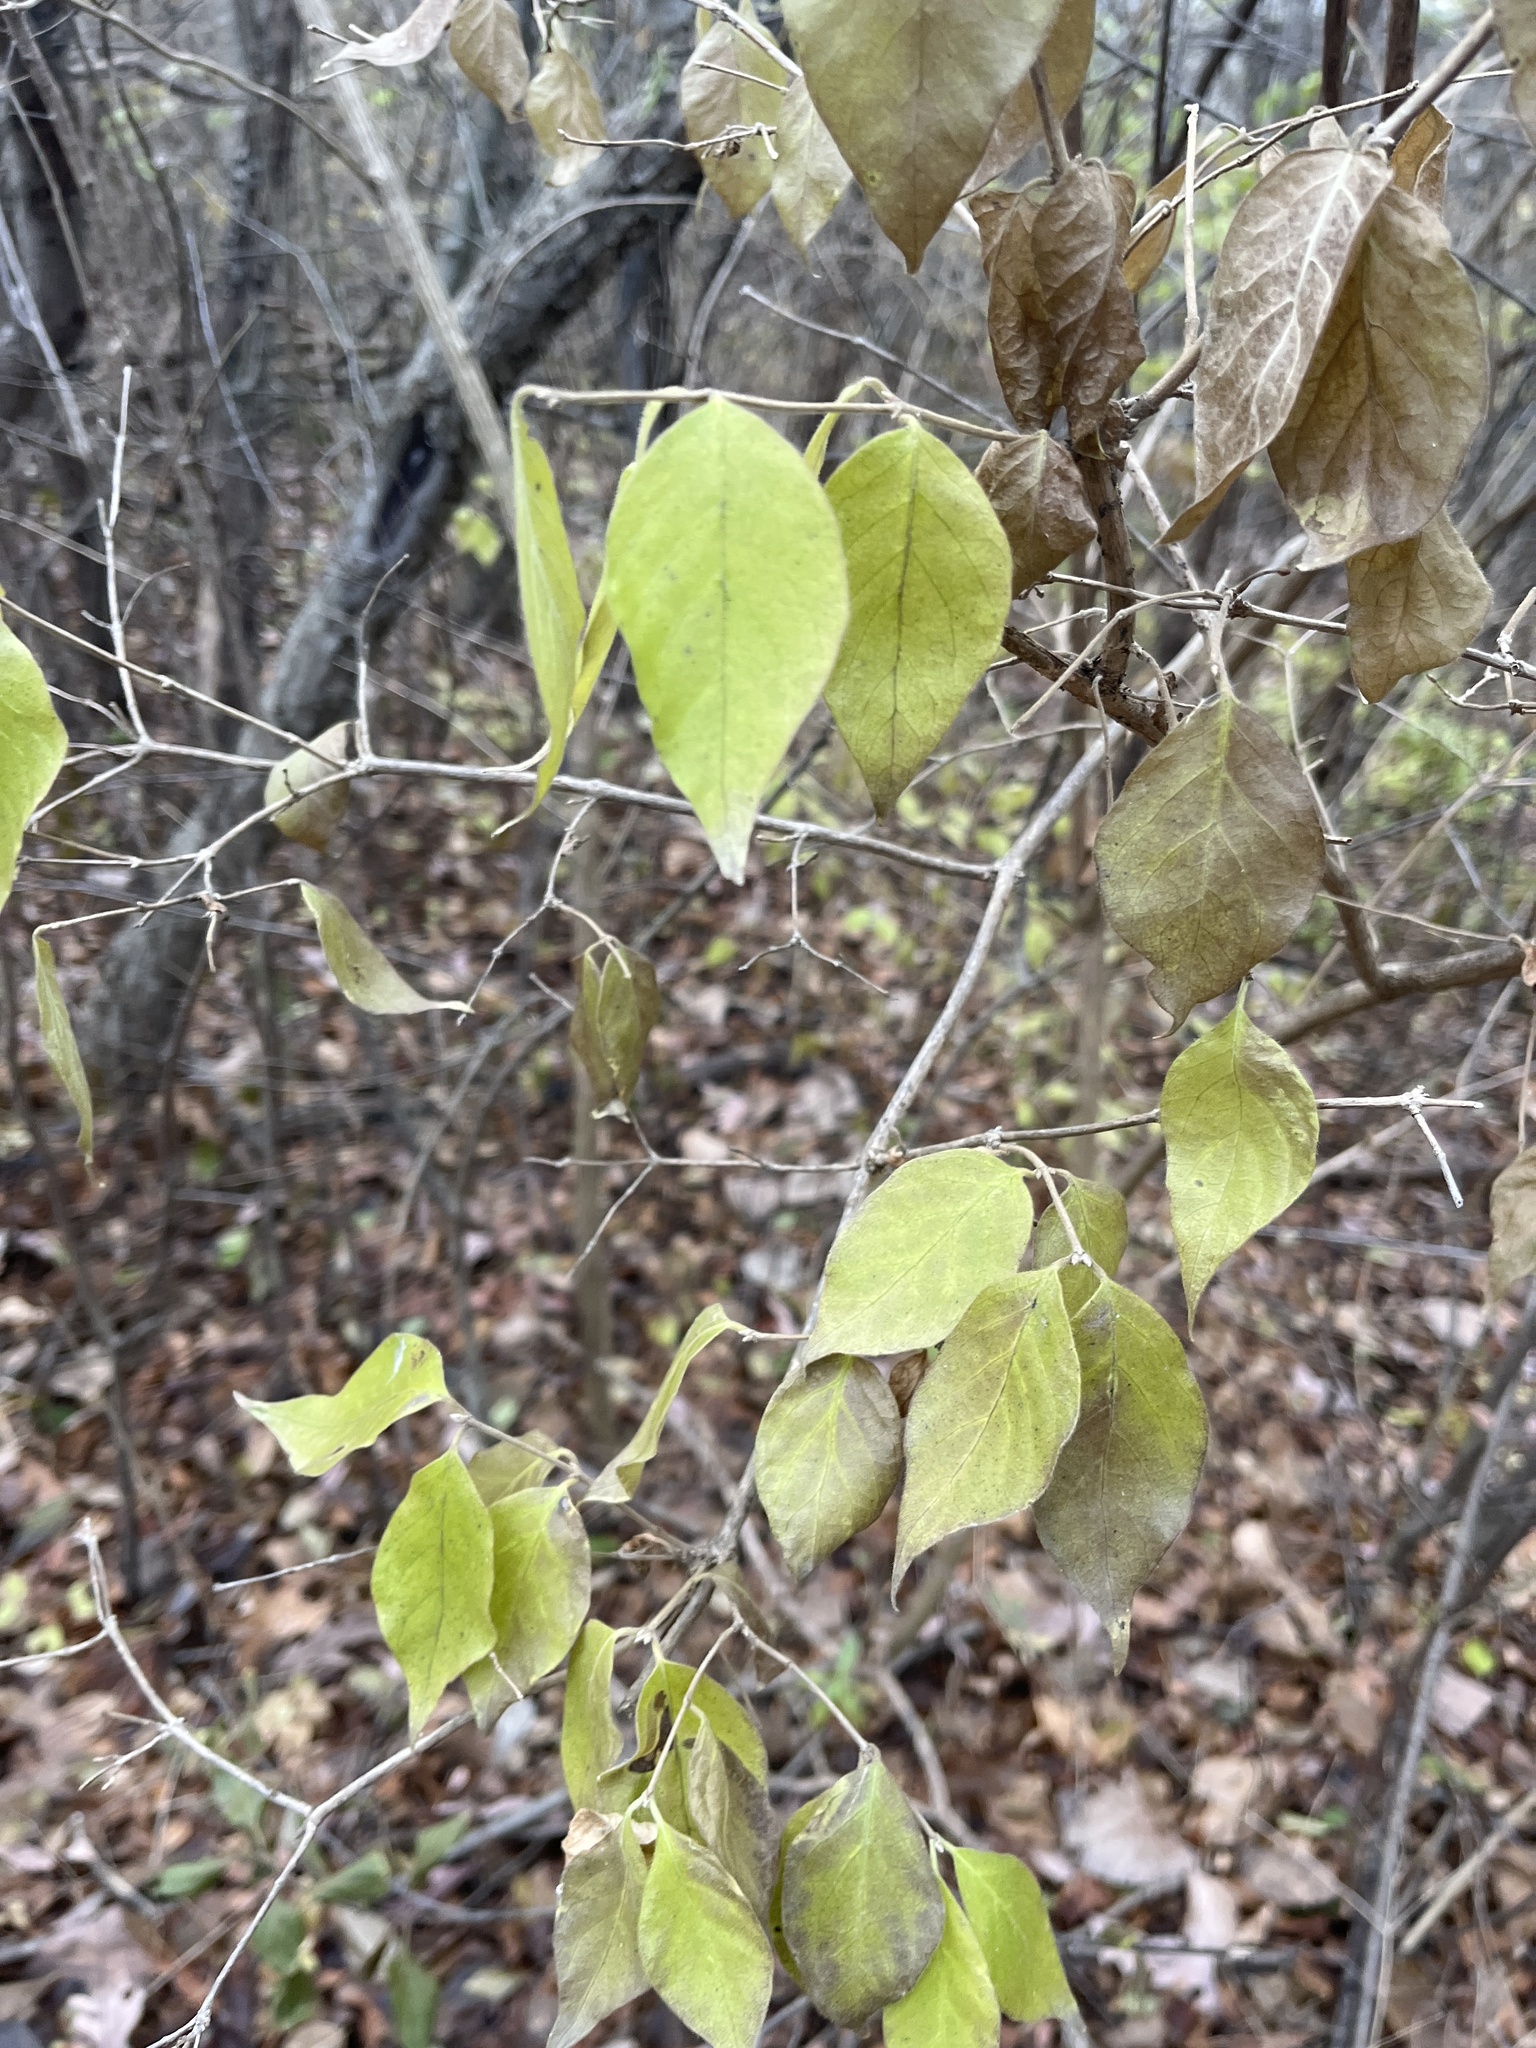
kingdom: Plantae
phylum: Tracheophyta
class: Magnoliopsida
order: Dipsacales
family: Caprifoliaceae
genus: Lonicera
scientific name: Lonicera maackii
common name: Amur honeysuckle
